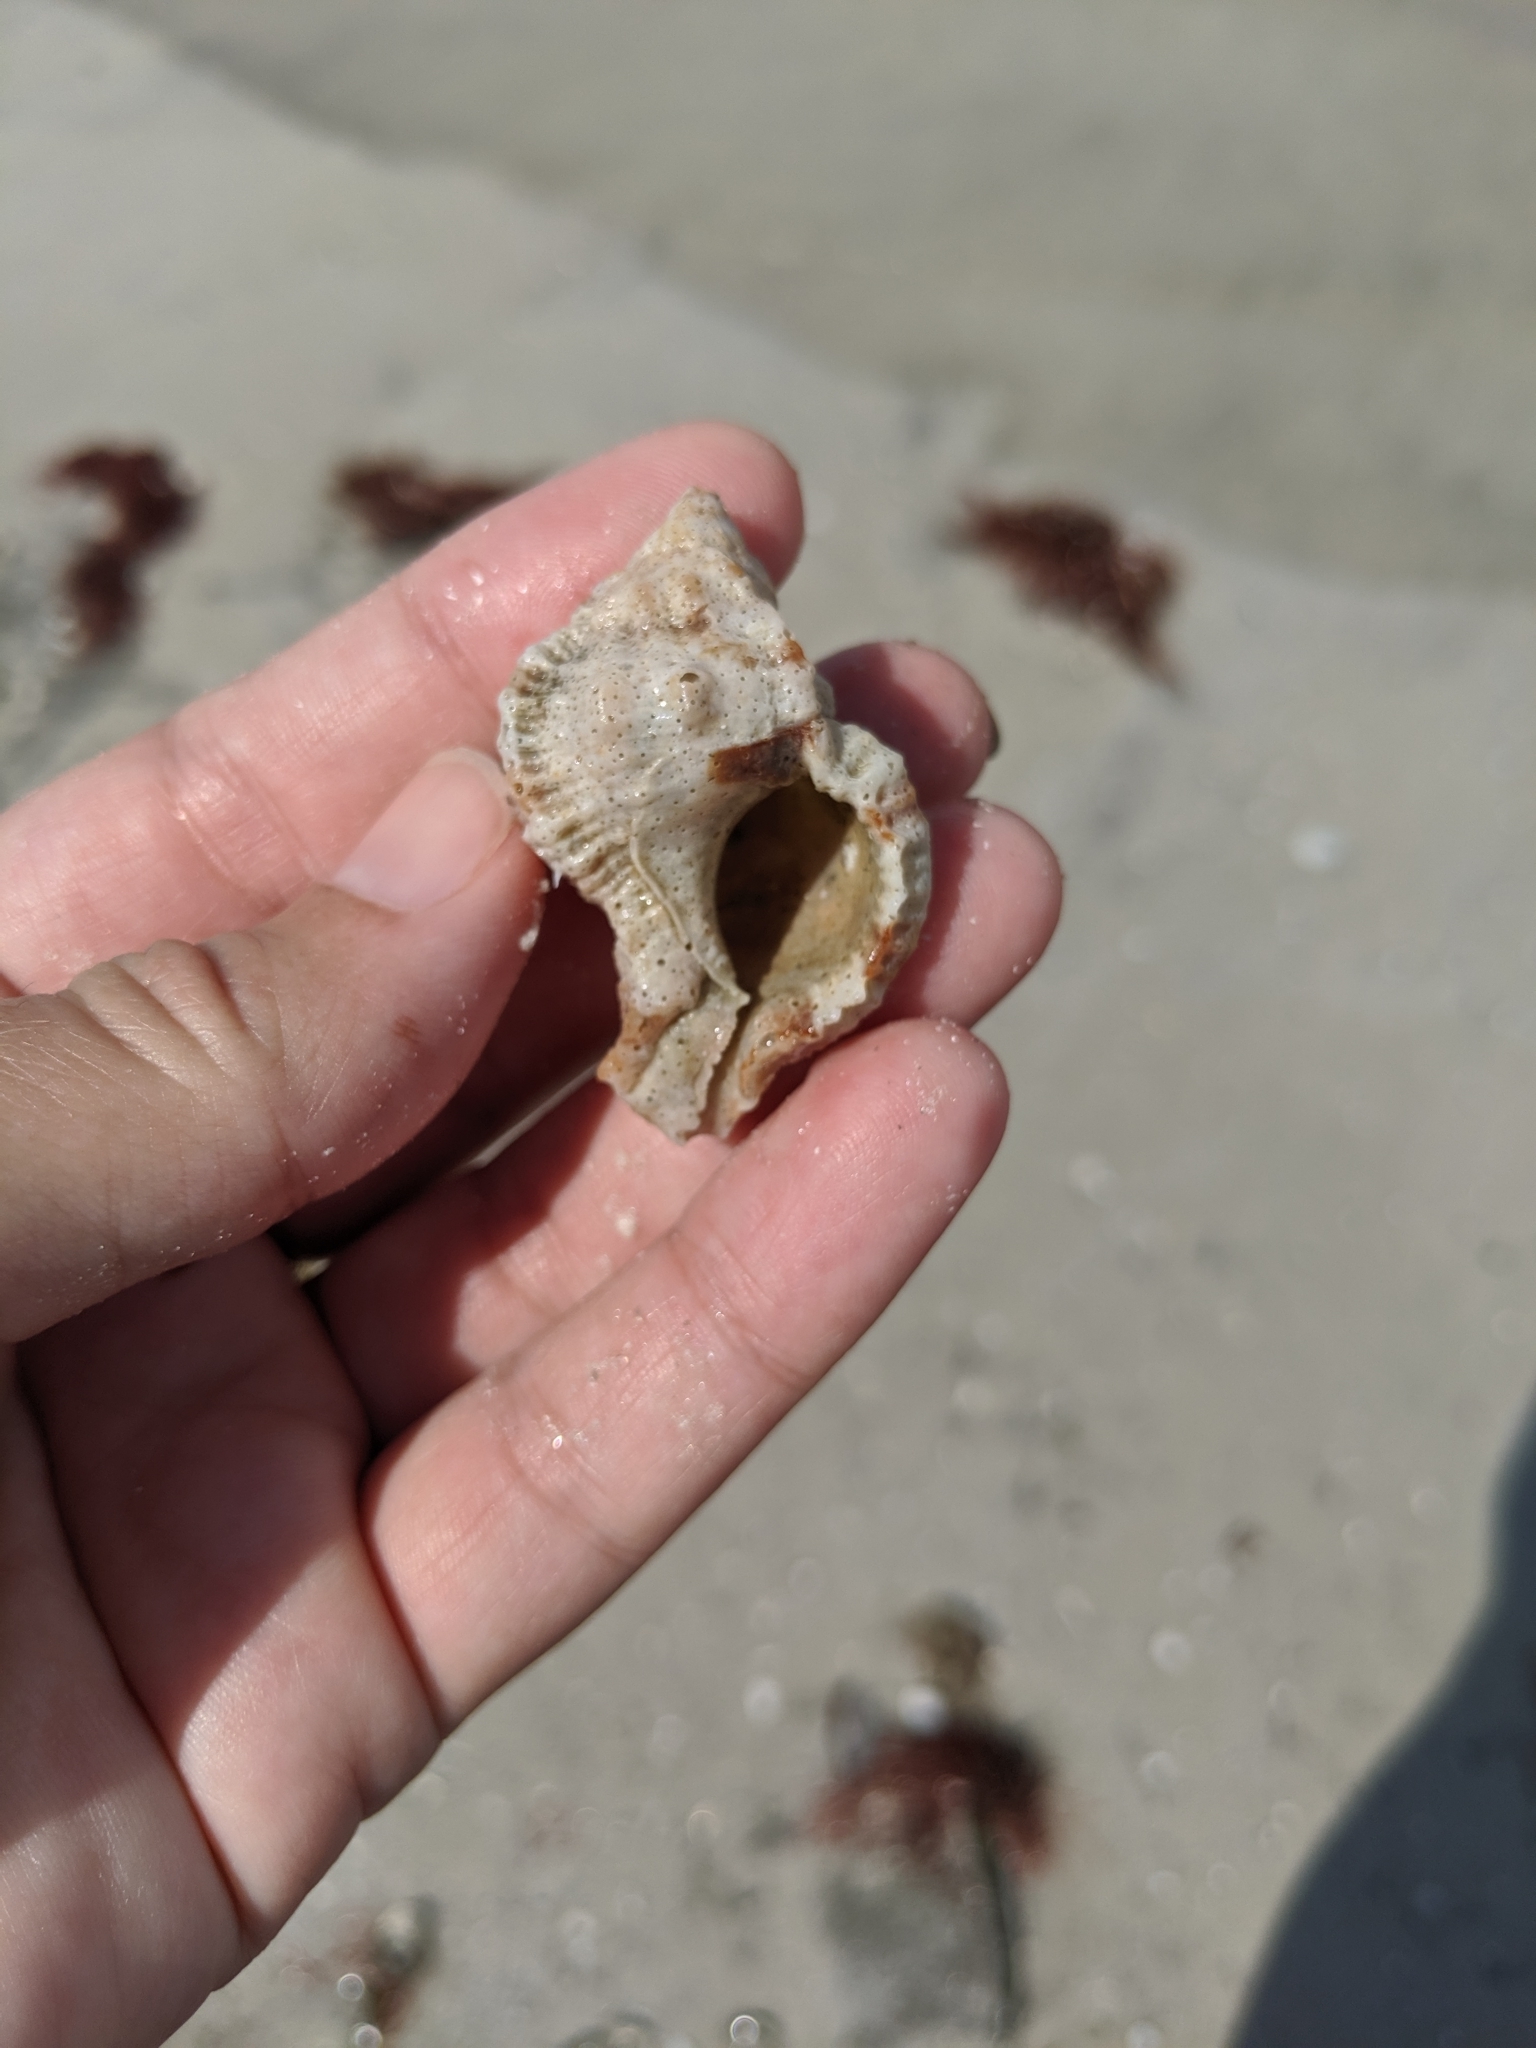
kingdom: Animalia
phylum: Mollusca
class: Gastropoda
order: Neogastropoda
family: Muricidae
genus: Phyllonotus
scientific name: Phyllonotus pomum
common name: Apple murex
